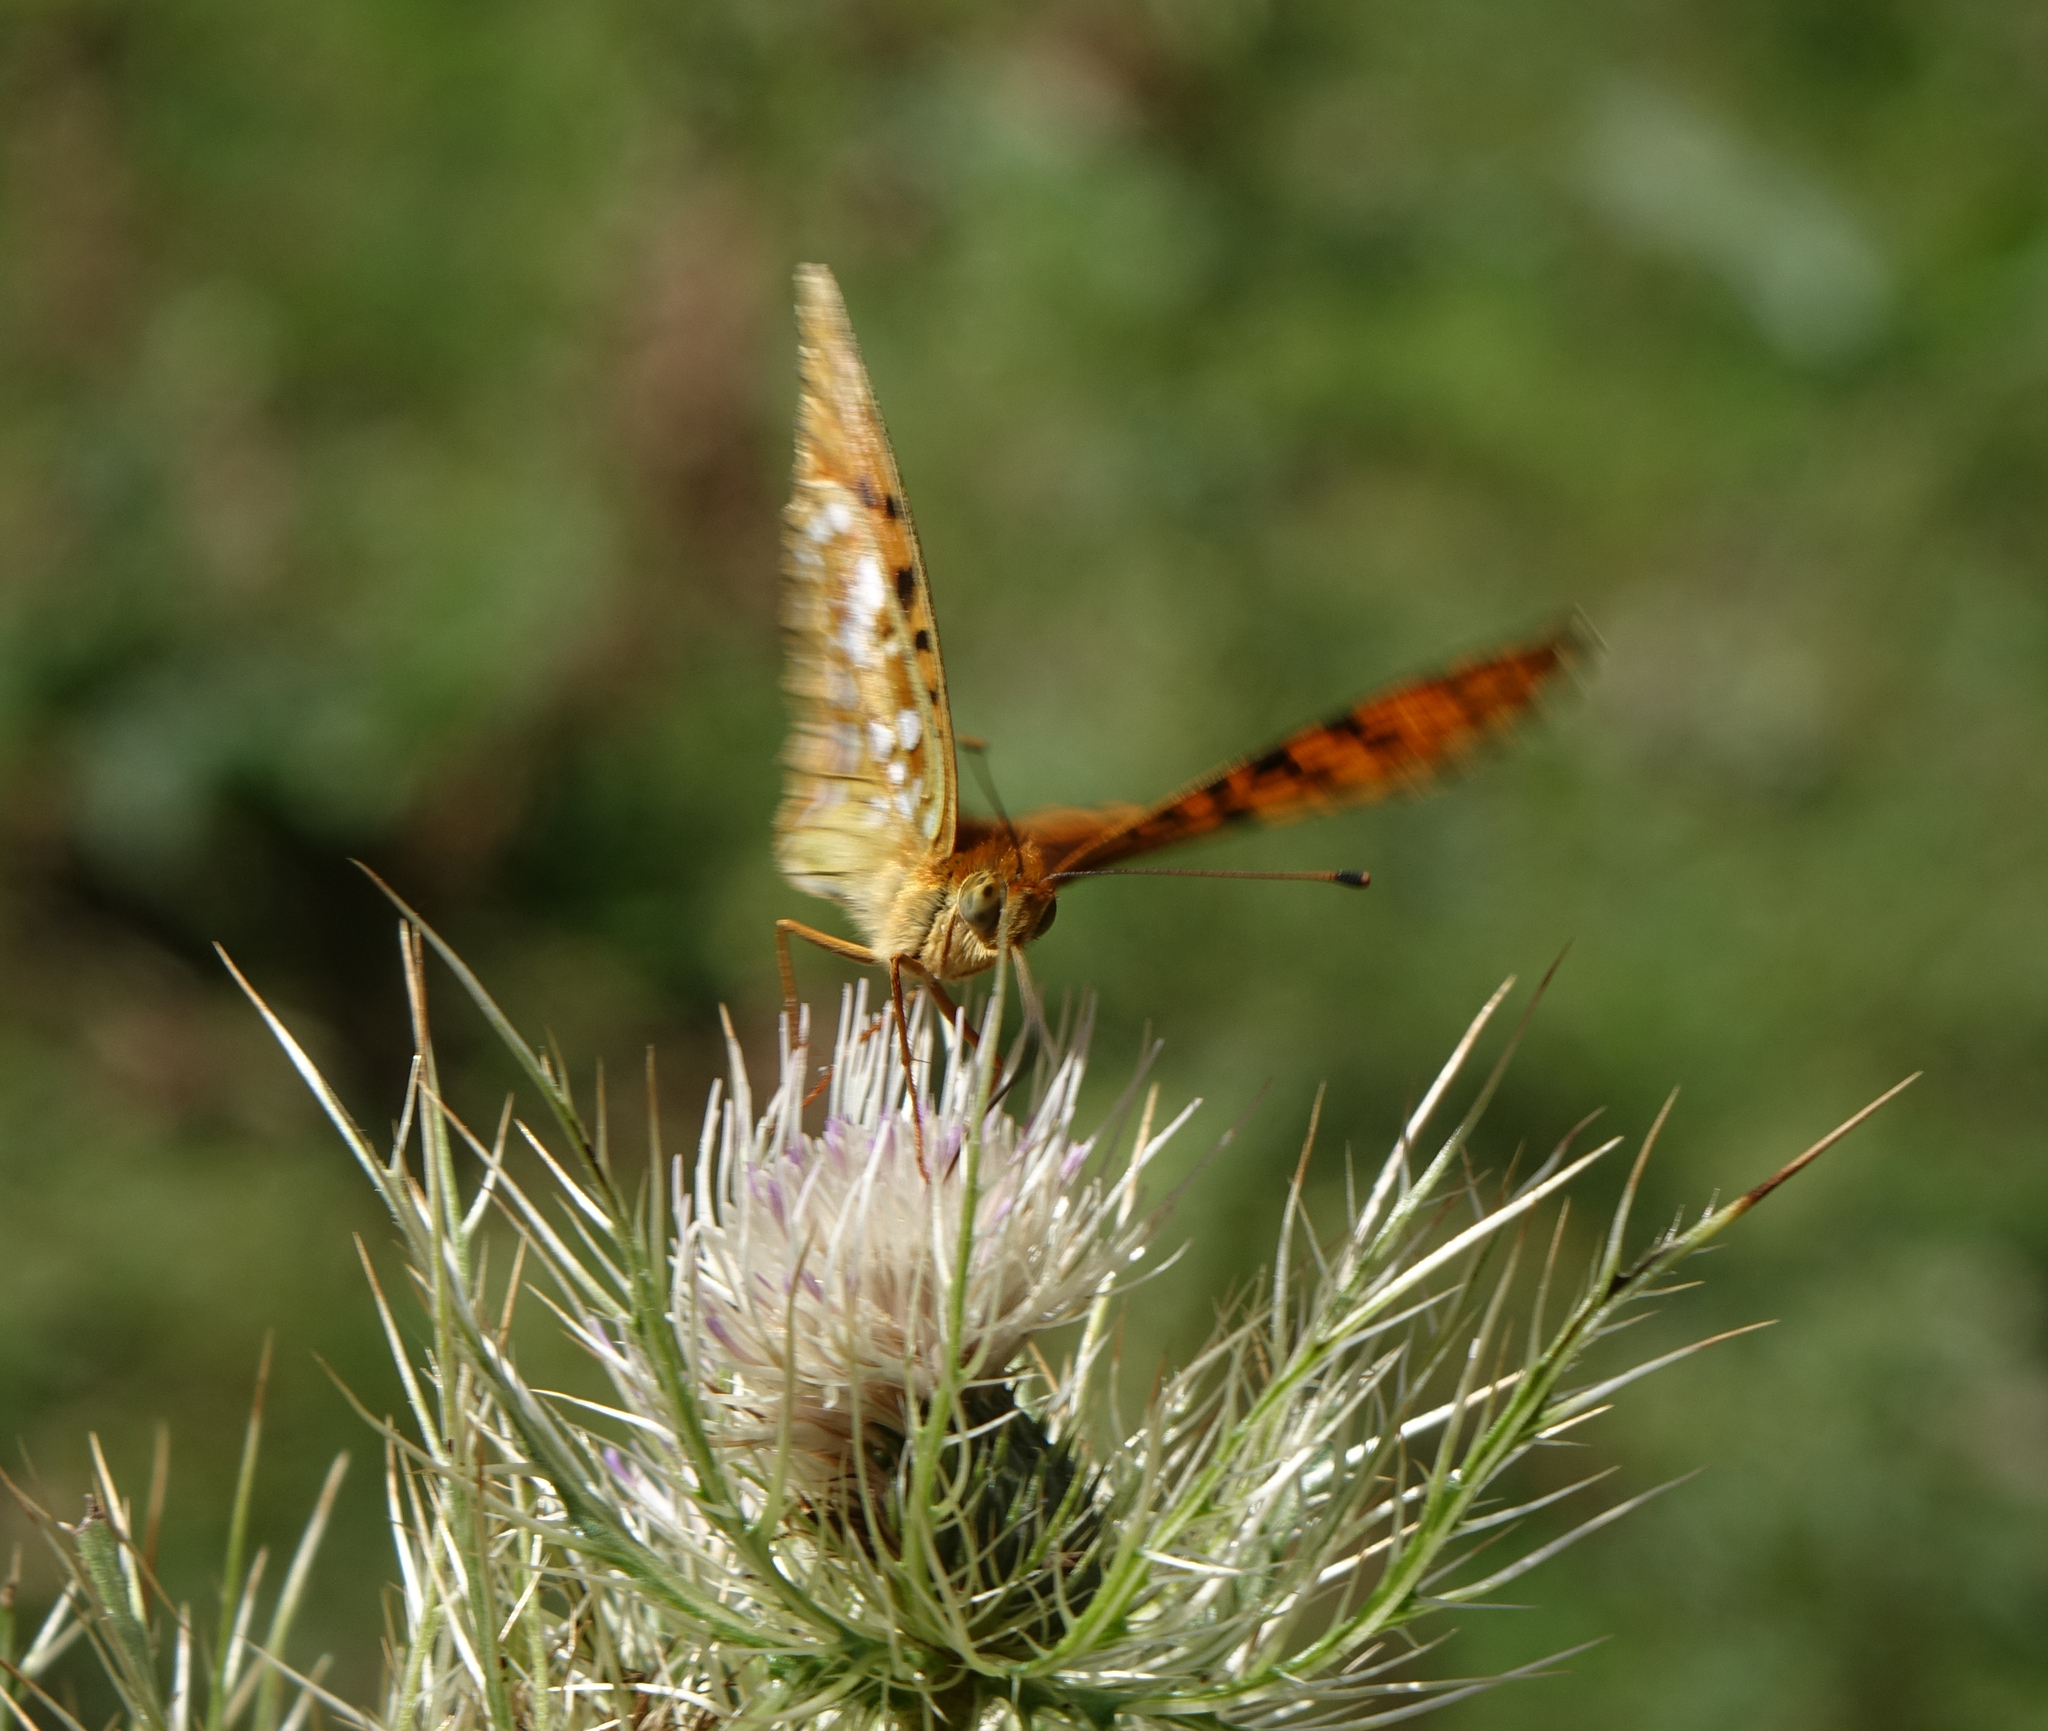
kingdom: Animalia
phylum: Arthropoda
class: Insecta
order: Lepidoptera
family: Nymphalidae
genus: Fabriciana
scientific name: Fabriciana adippe
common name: High brown fritillary
